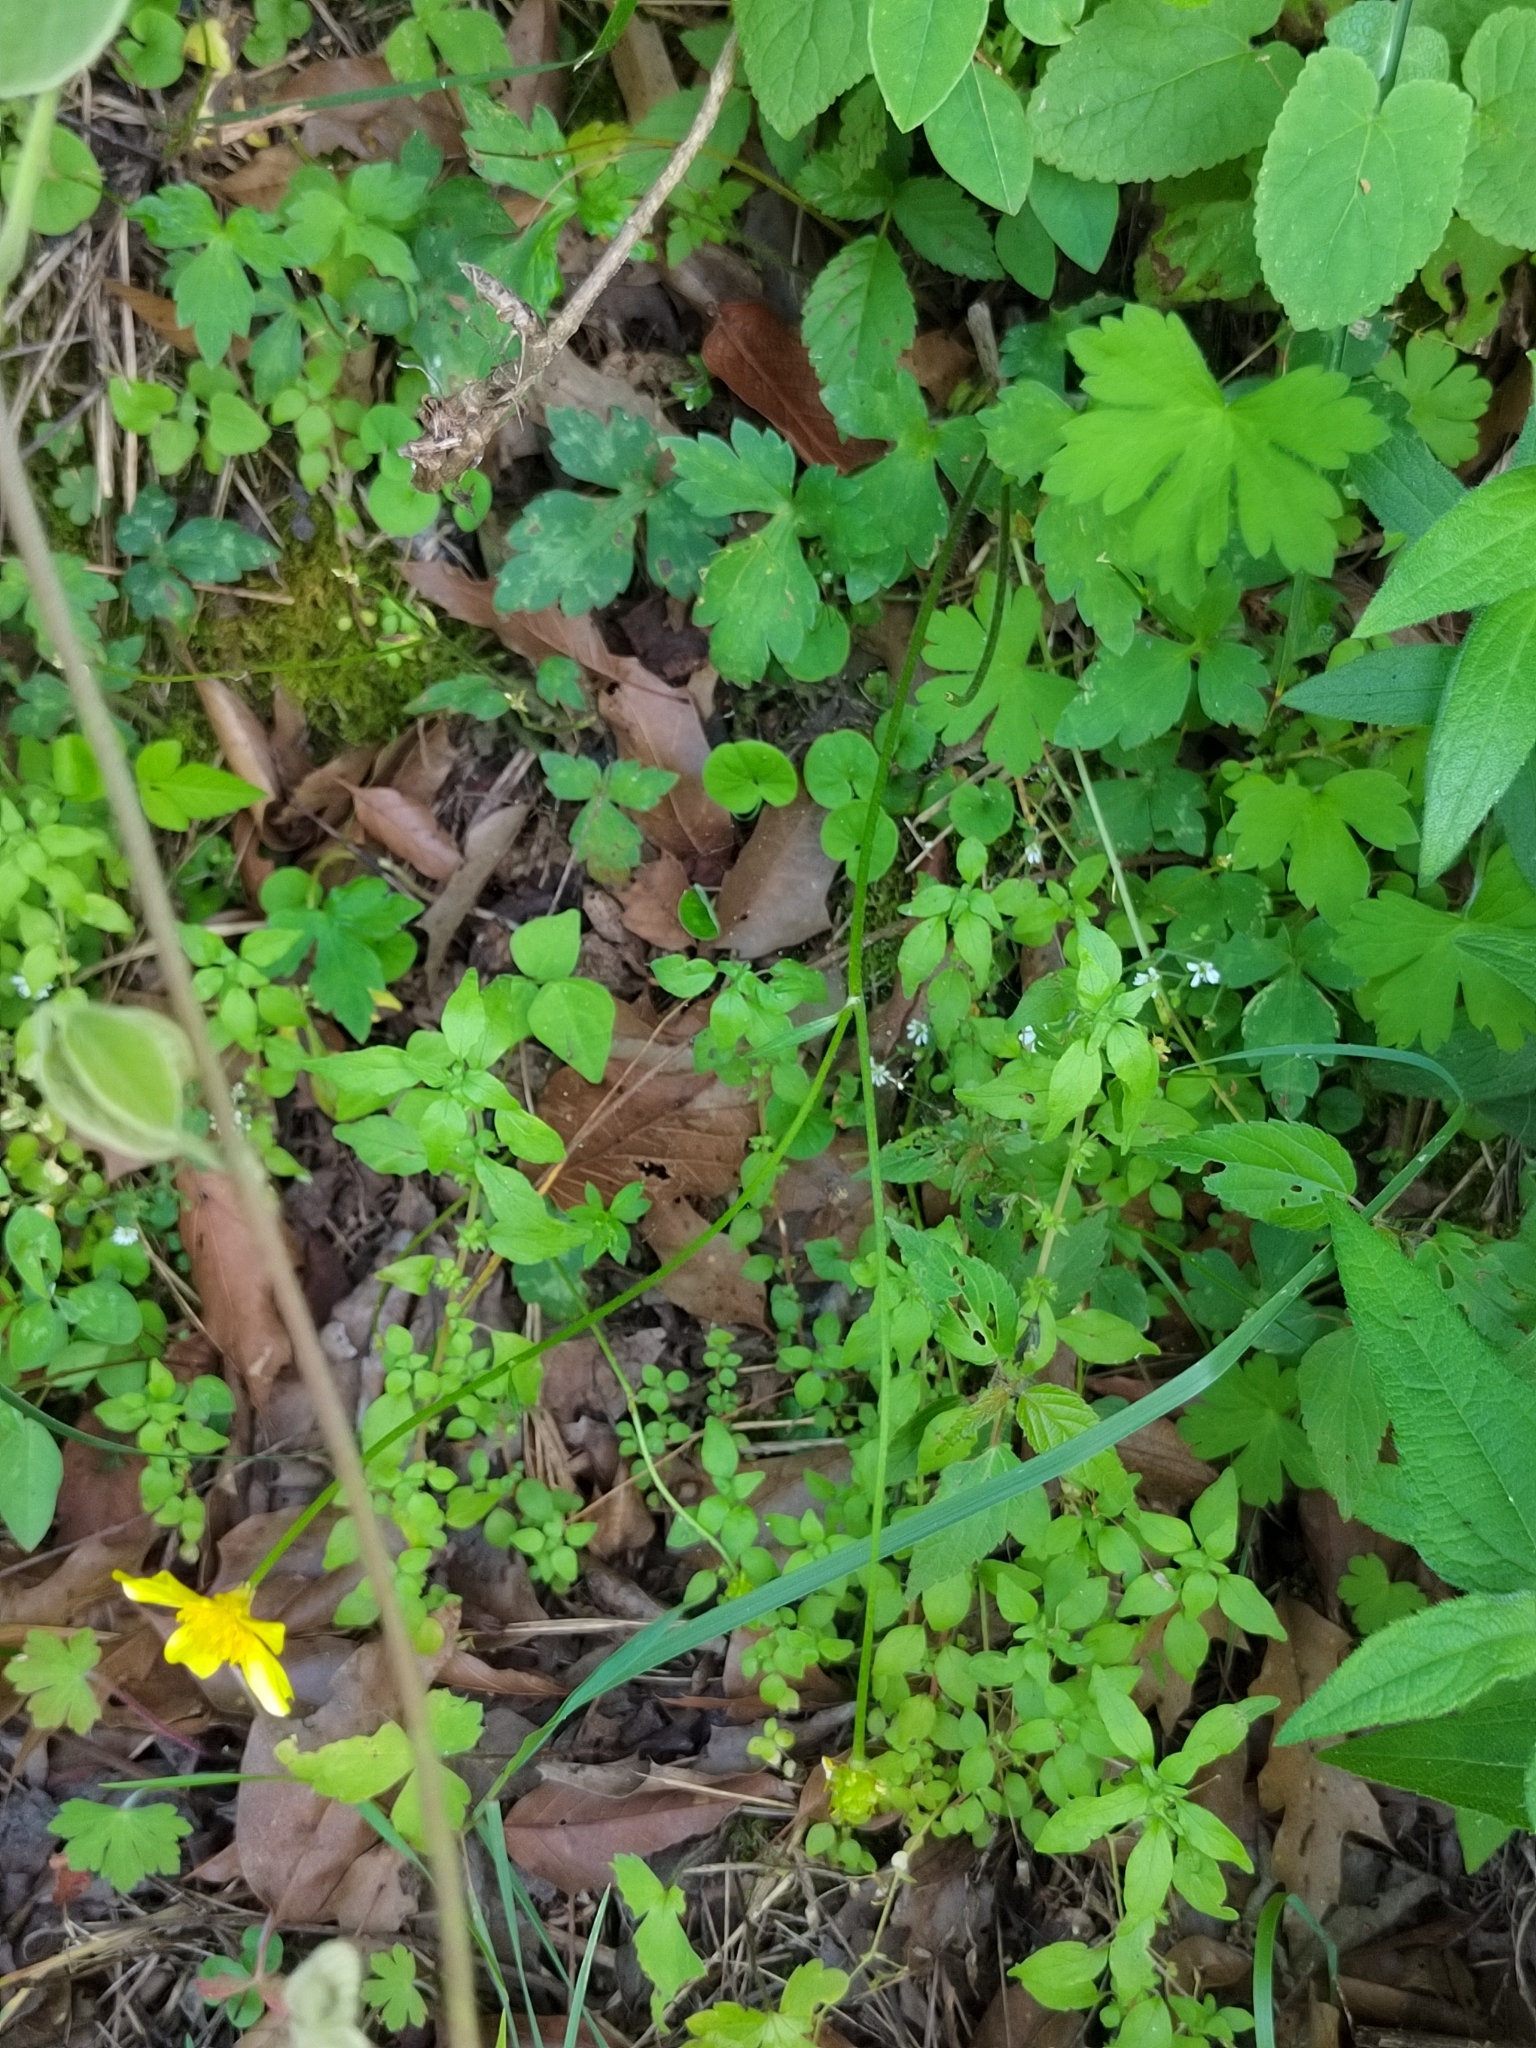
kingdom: Plantae
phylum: Tracheophyta
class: Magnoliopsida
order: Ranunculales
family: Ranunculaceae
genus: Ranunculus
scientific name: Ranunculus sierrae-orientalis
